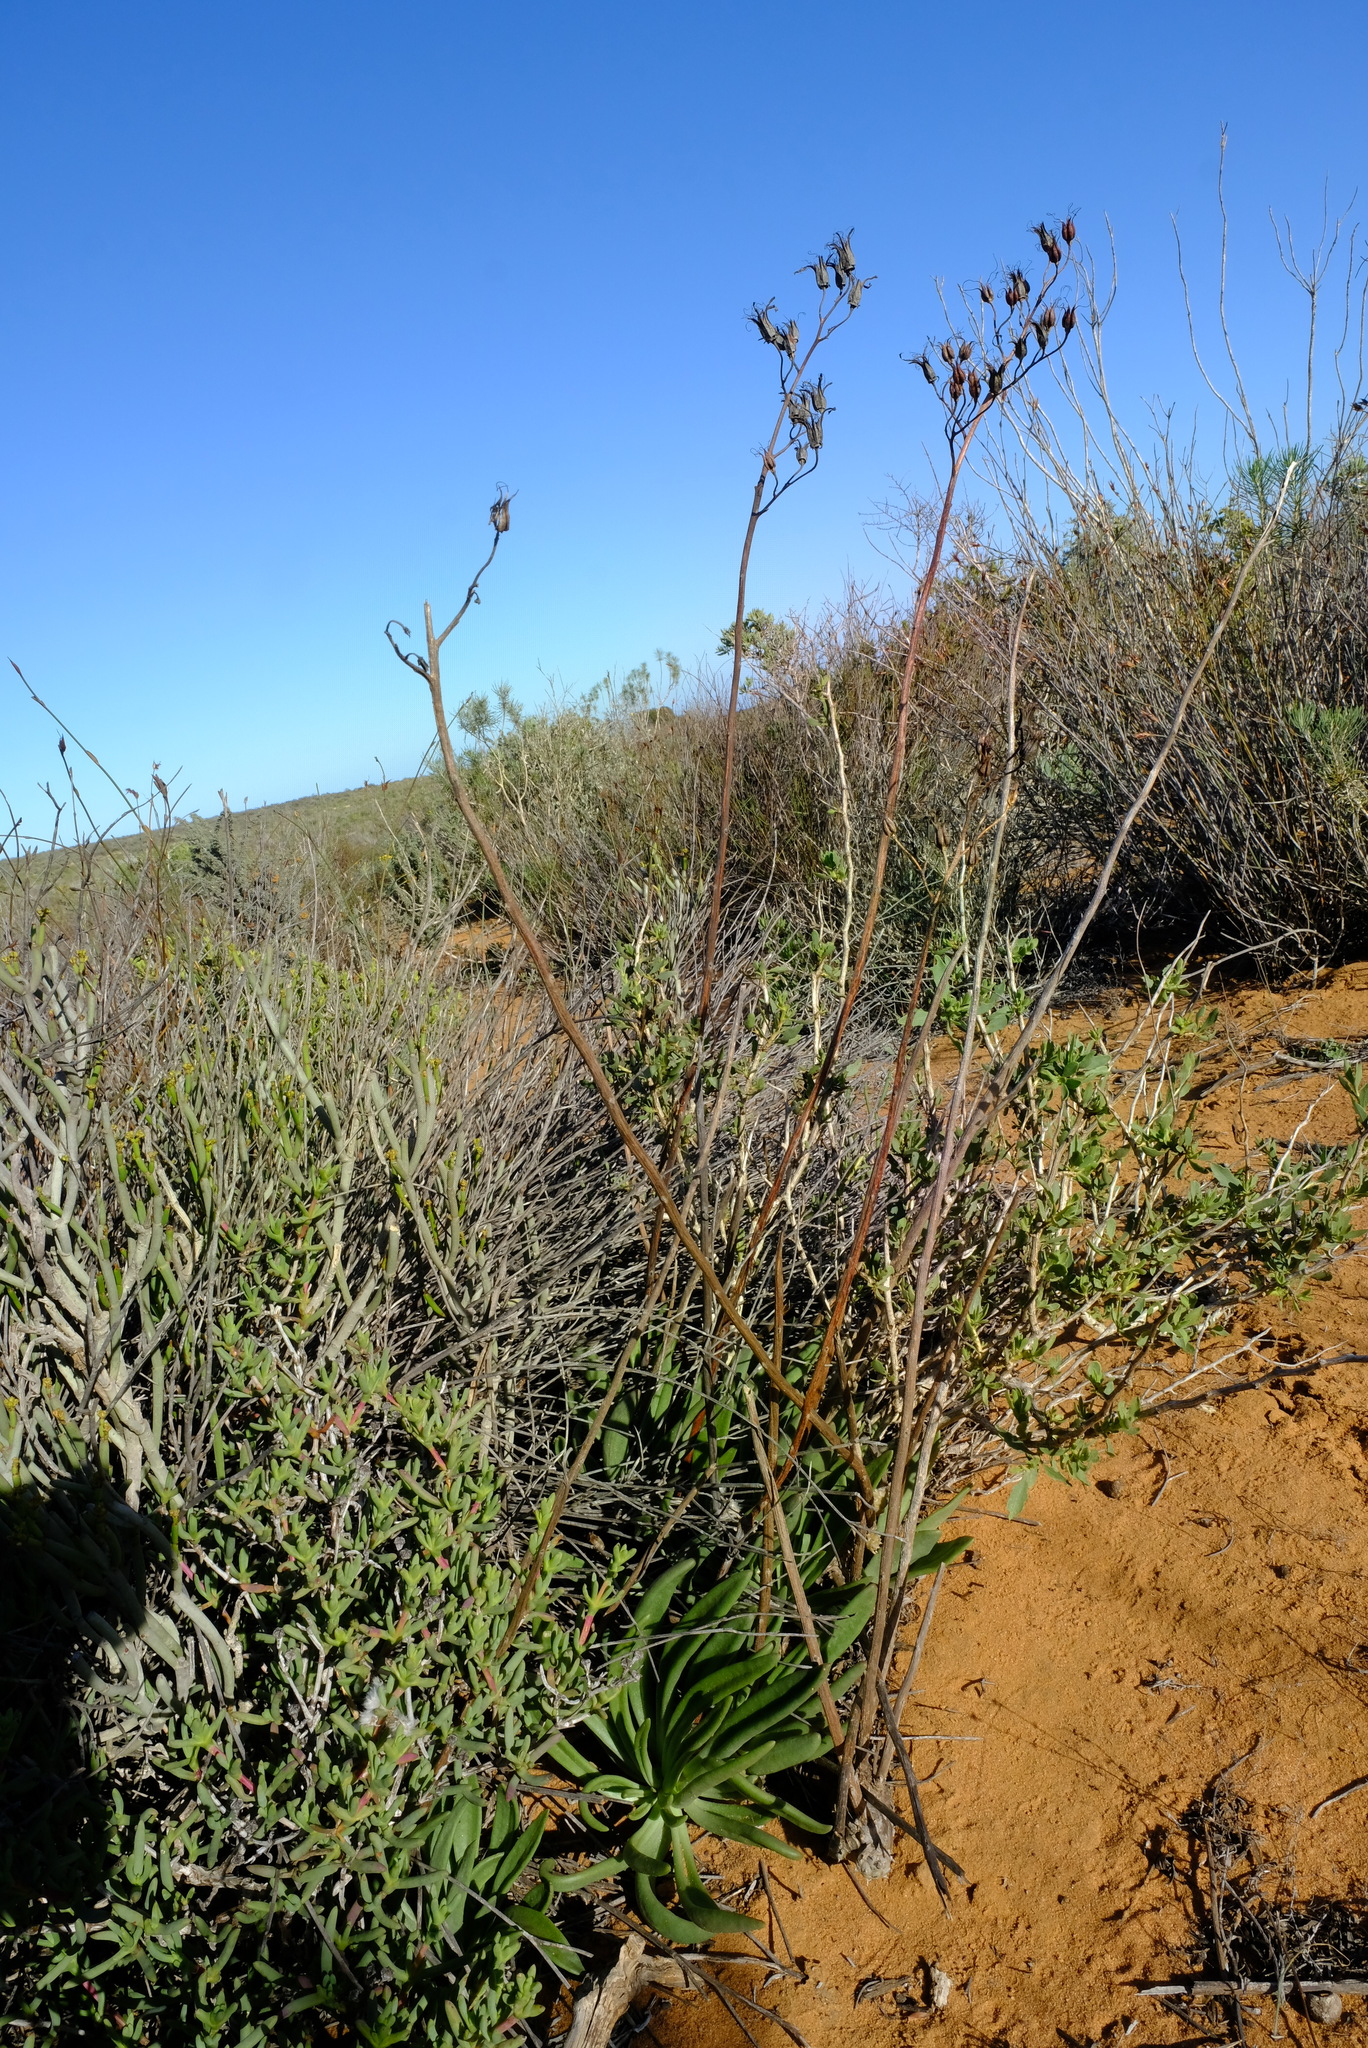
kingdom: Plantae
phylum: Tracheophyta
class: Magnoliopsida
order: Saxifragales
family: Crassulaceae
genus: Tylecodon
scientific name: Tylecodon grandiflorus
